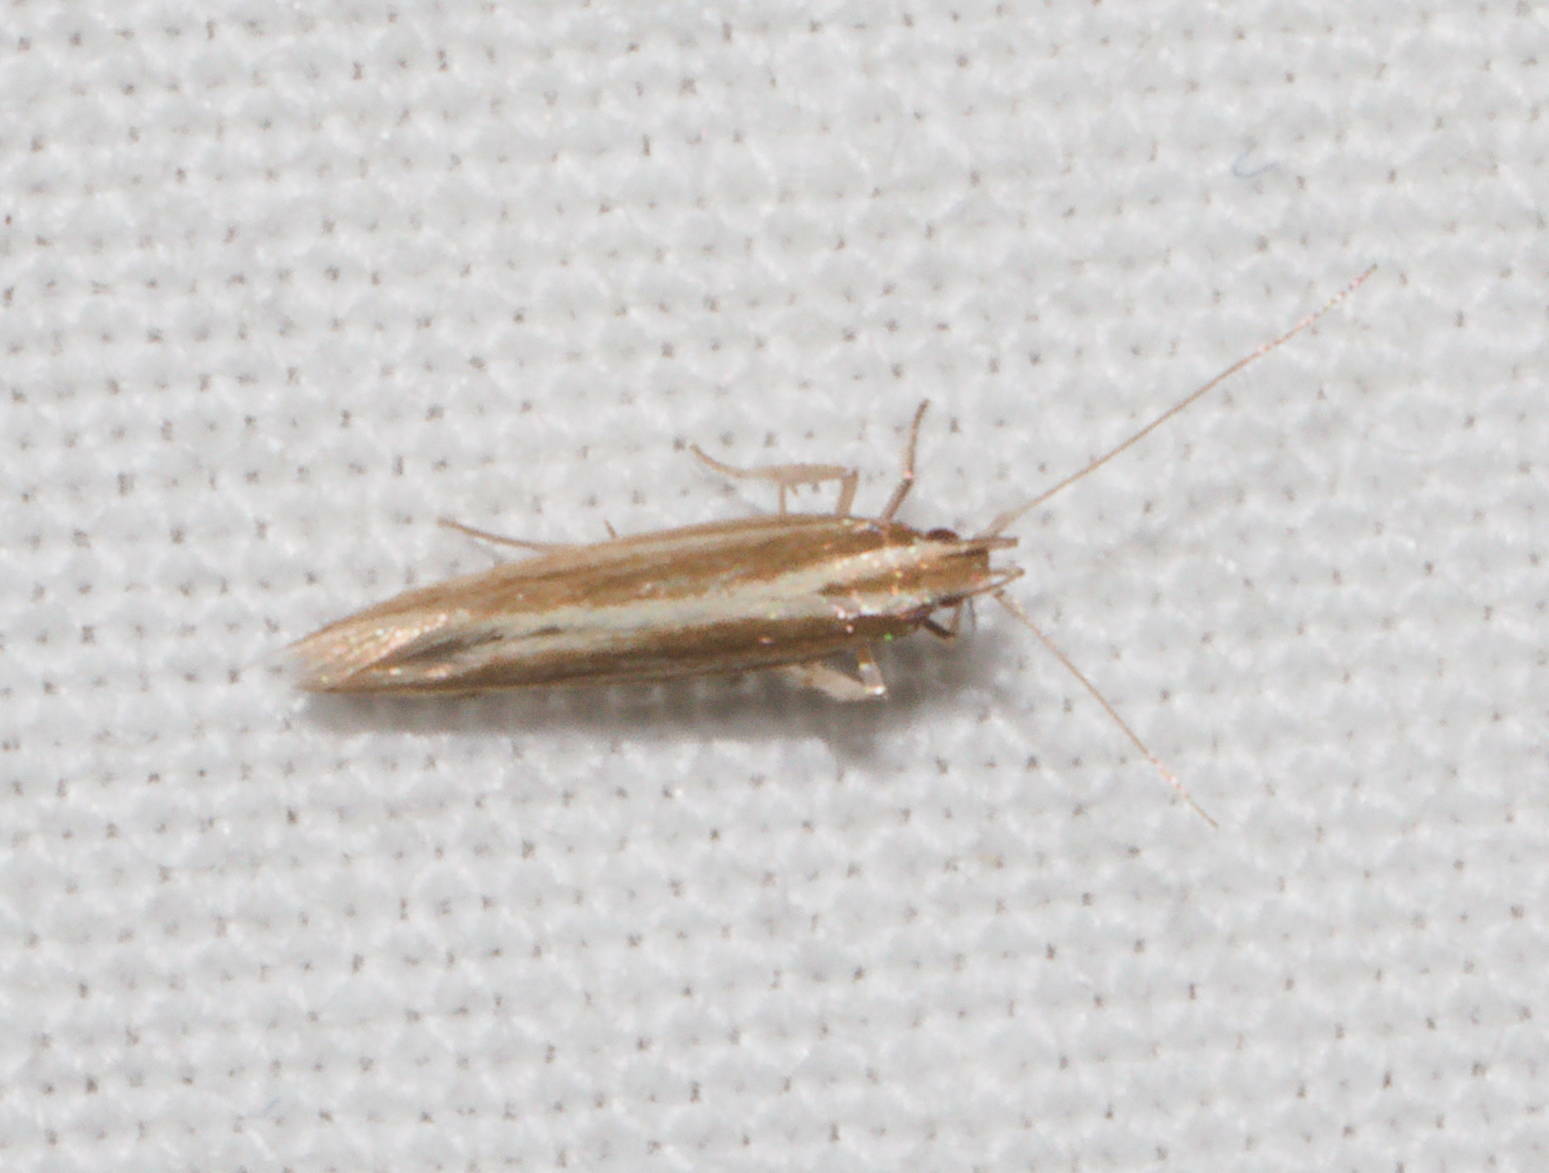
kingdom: Animalia
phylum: Arthropoda
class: Insecta
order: Lepidoptera
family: Cosmopterigidae
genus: Asymphorodes
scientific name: Asymphorodes
